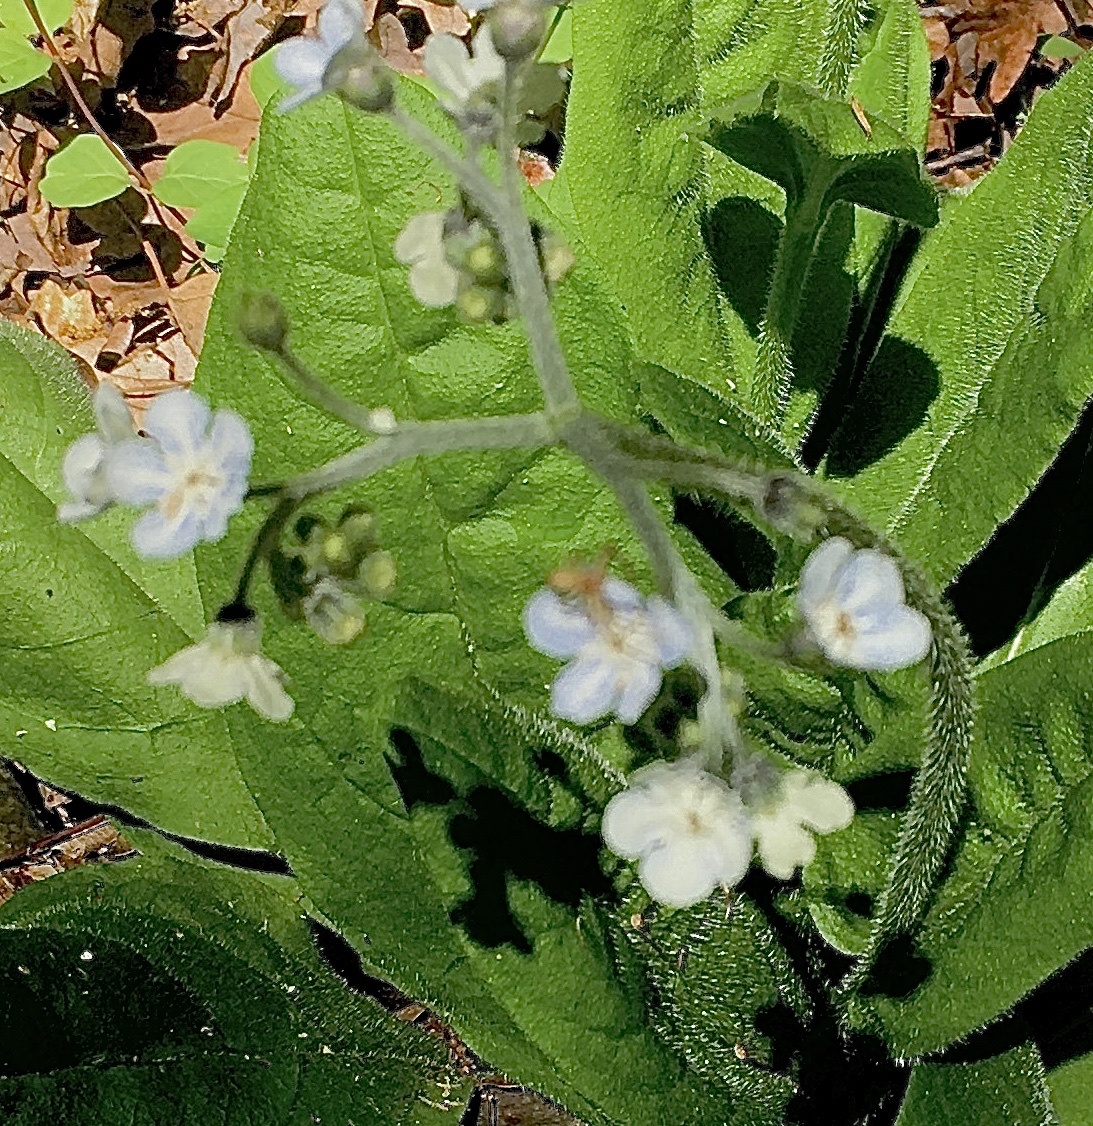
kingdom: Plantae
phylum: Tracheophyta
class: Magnoliopsida
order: Boraginales
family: Boraginaceae
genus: Andersonglossum
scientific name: Andersonglossum virginianum
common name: Wild comfrey
